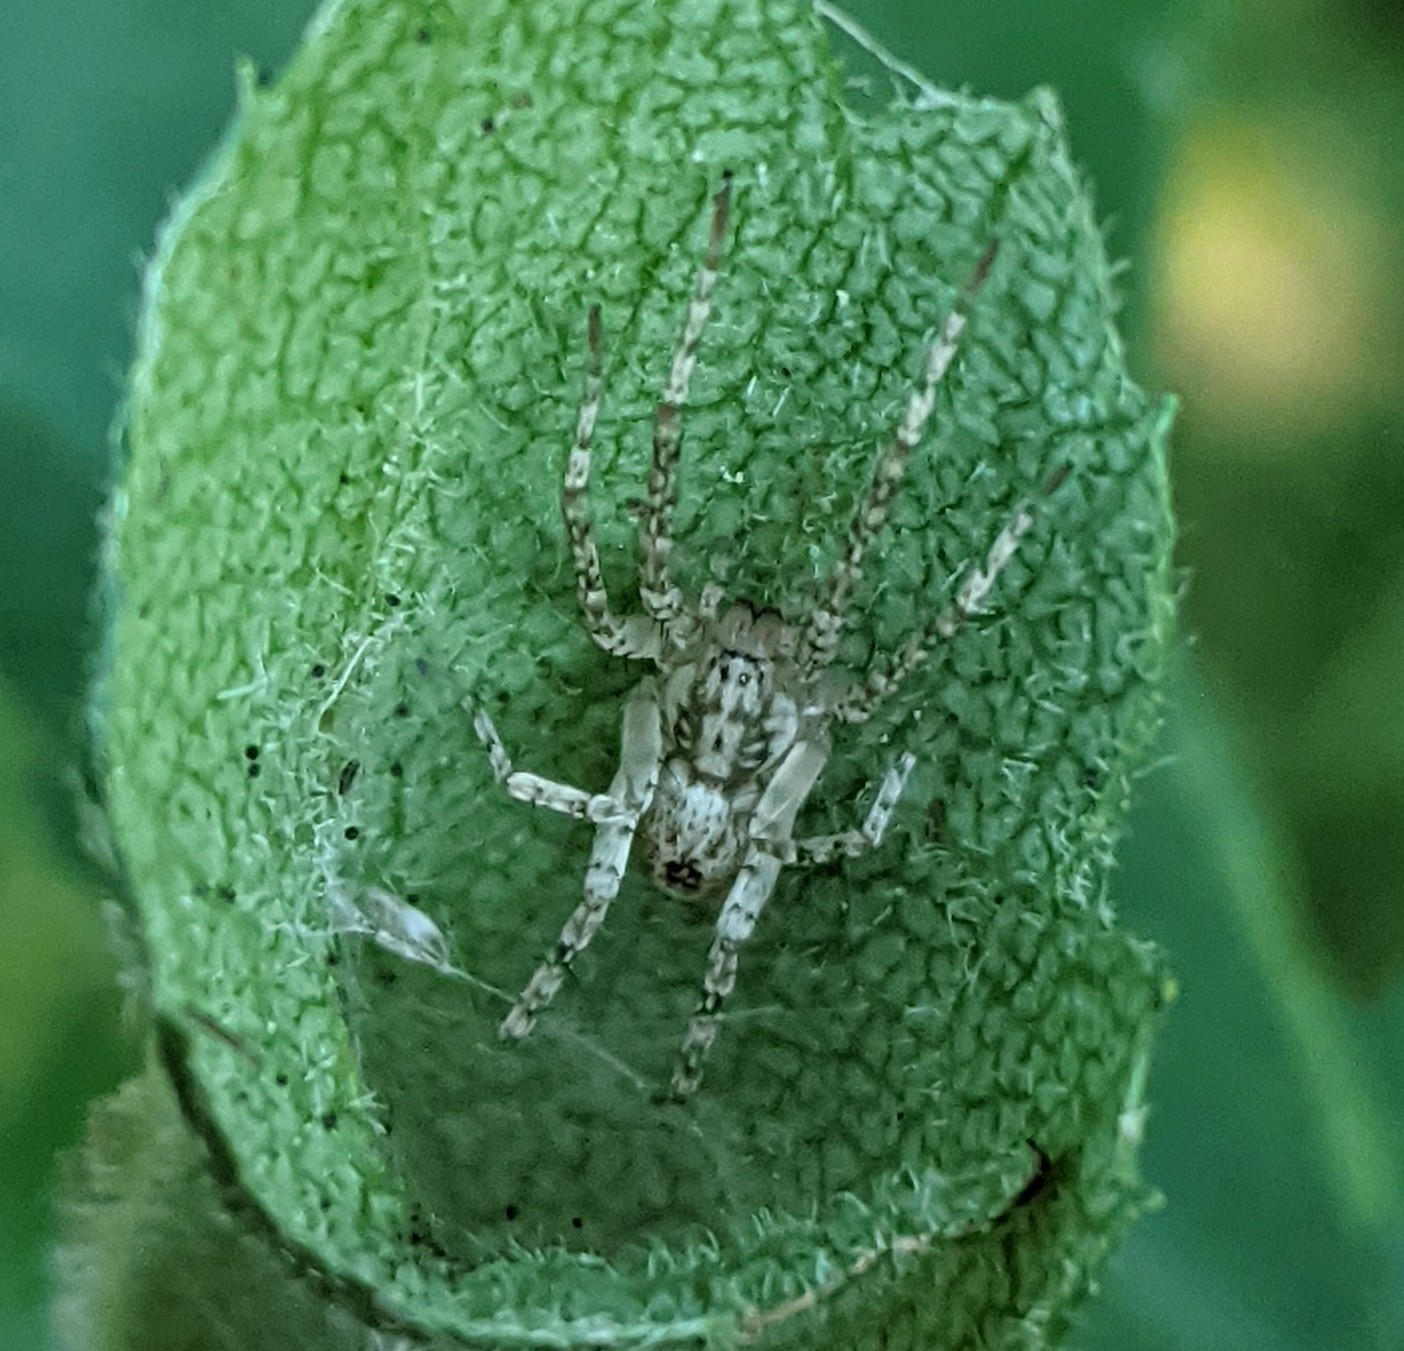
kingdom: Animalia
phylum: Arthropoda
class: Arachnida
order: Araneae
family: Anyphaenidae
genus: Anyphaena
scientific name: Anyphaena accentuata
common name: Buzzing spider
